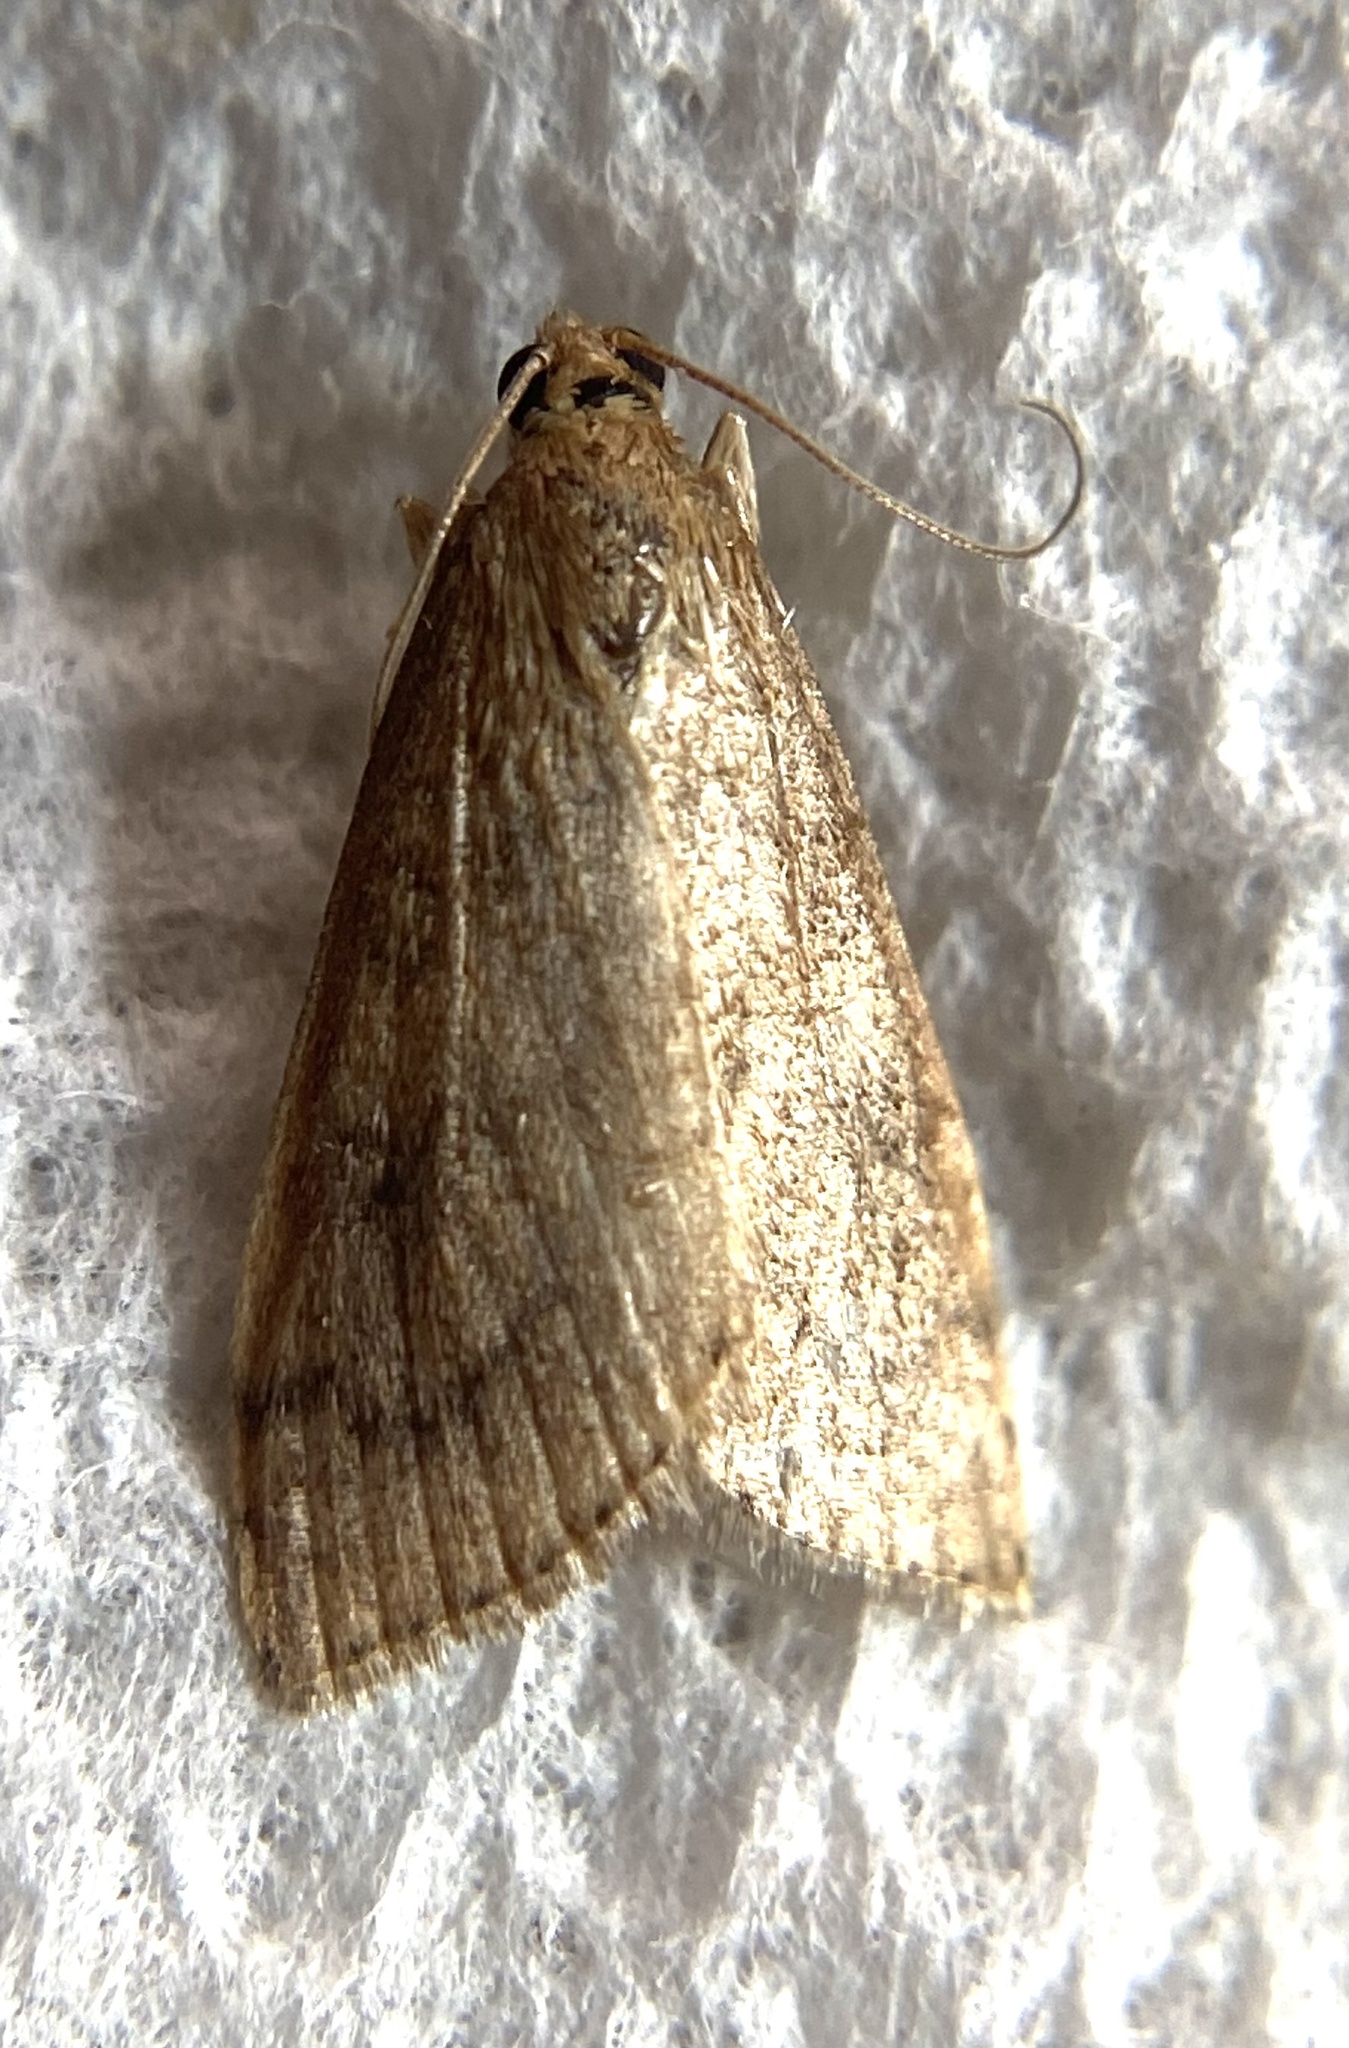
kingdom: Animalia
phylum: Arthropoda
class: Insecta
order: Lepidoptera
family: Crambidae
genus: Udea
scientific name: Udea rubigalis
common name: Celery leaftier moth
